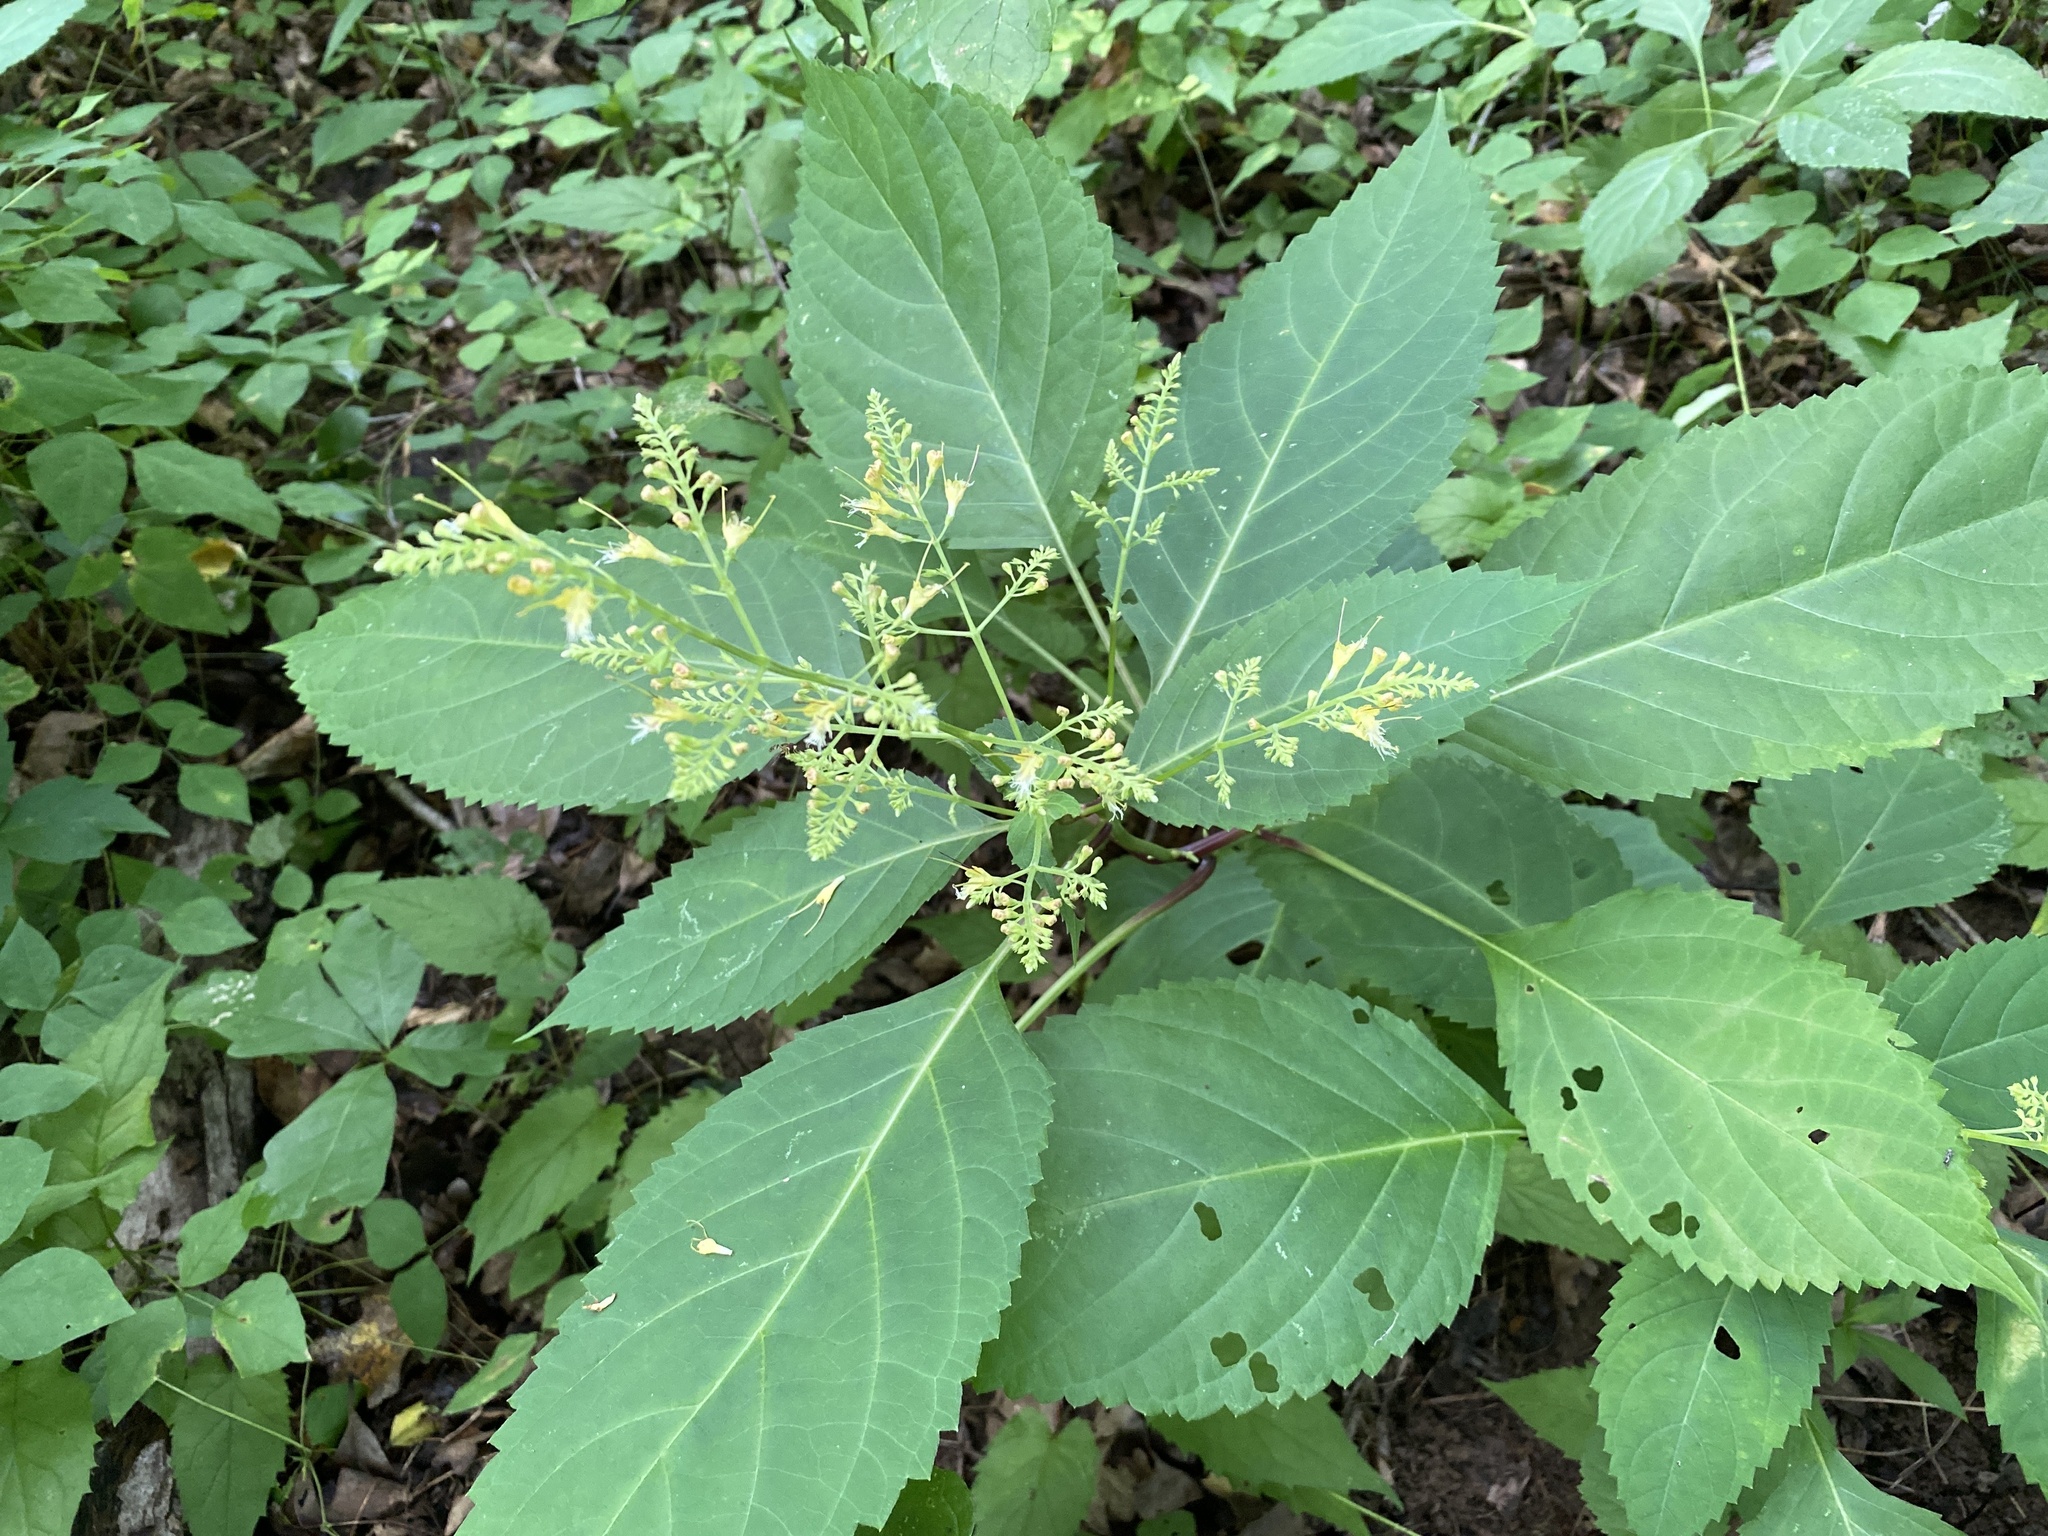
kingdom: Plantae
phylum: Tracheophyta
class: Magnoliopsida
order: Lamiales
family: Lamiaceae
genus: Collinsonia
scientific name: Collinsonia canadensis
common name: Northern horsebalm
